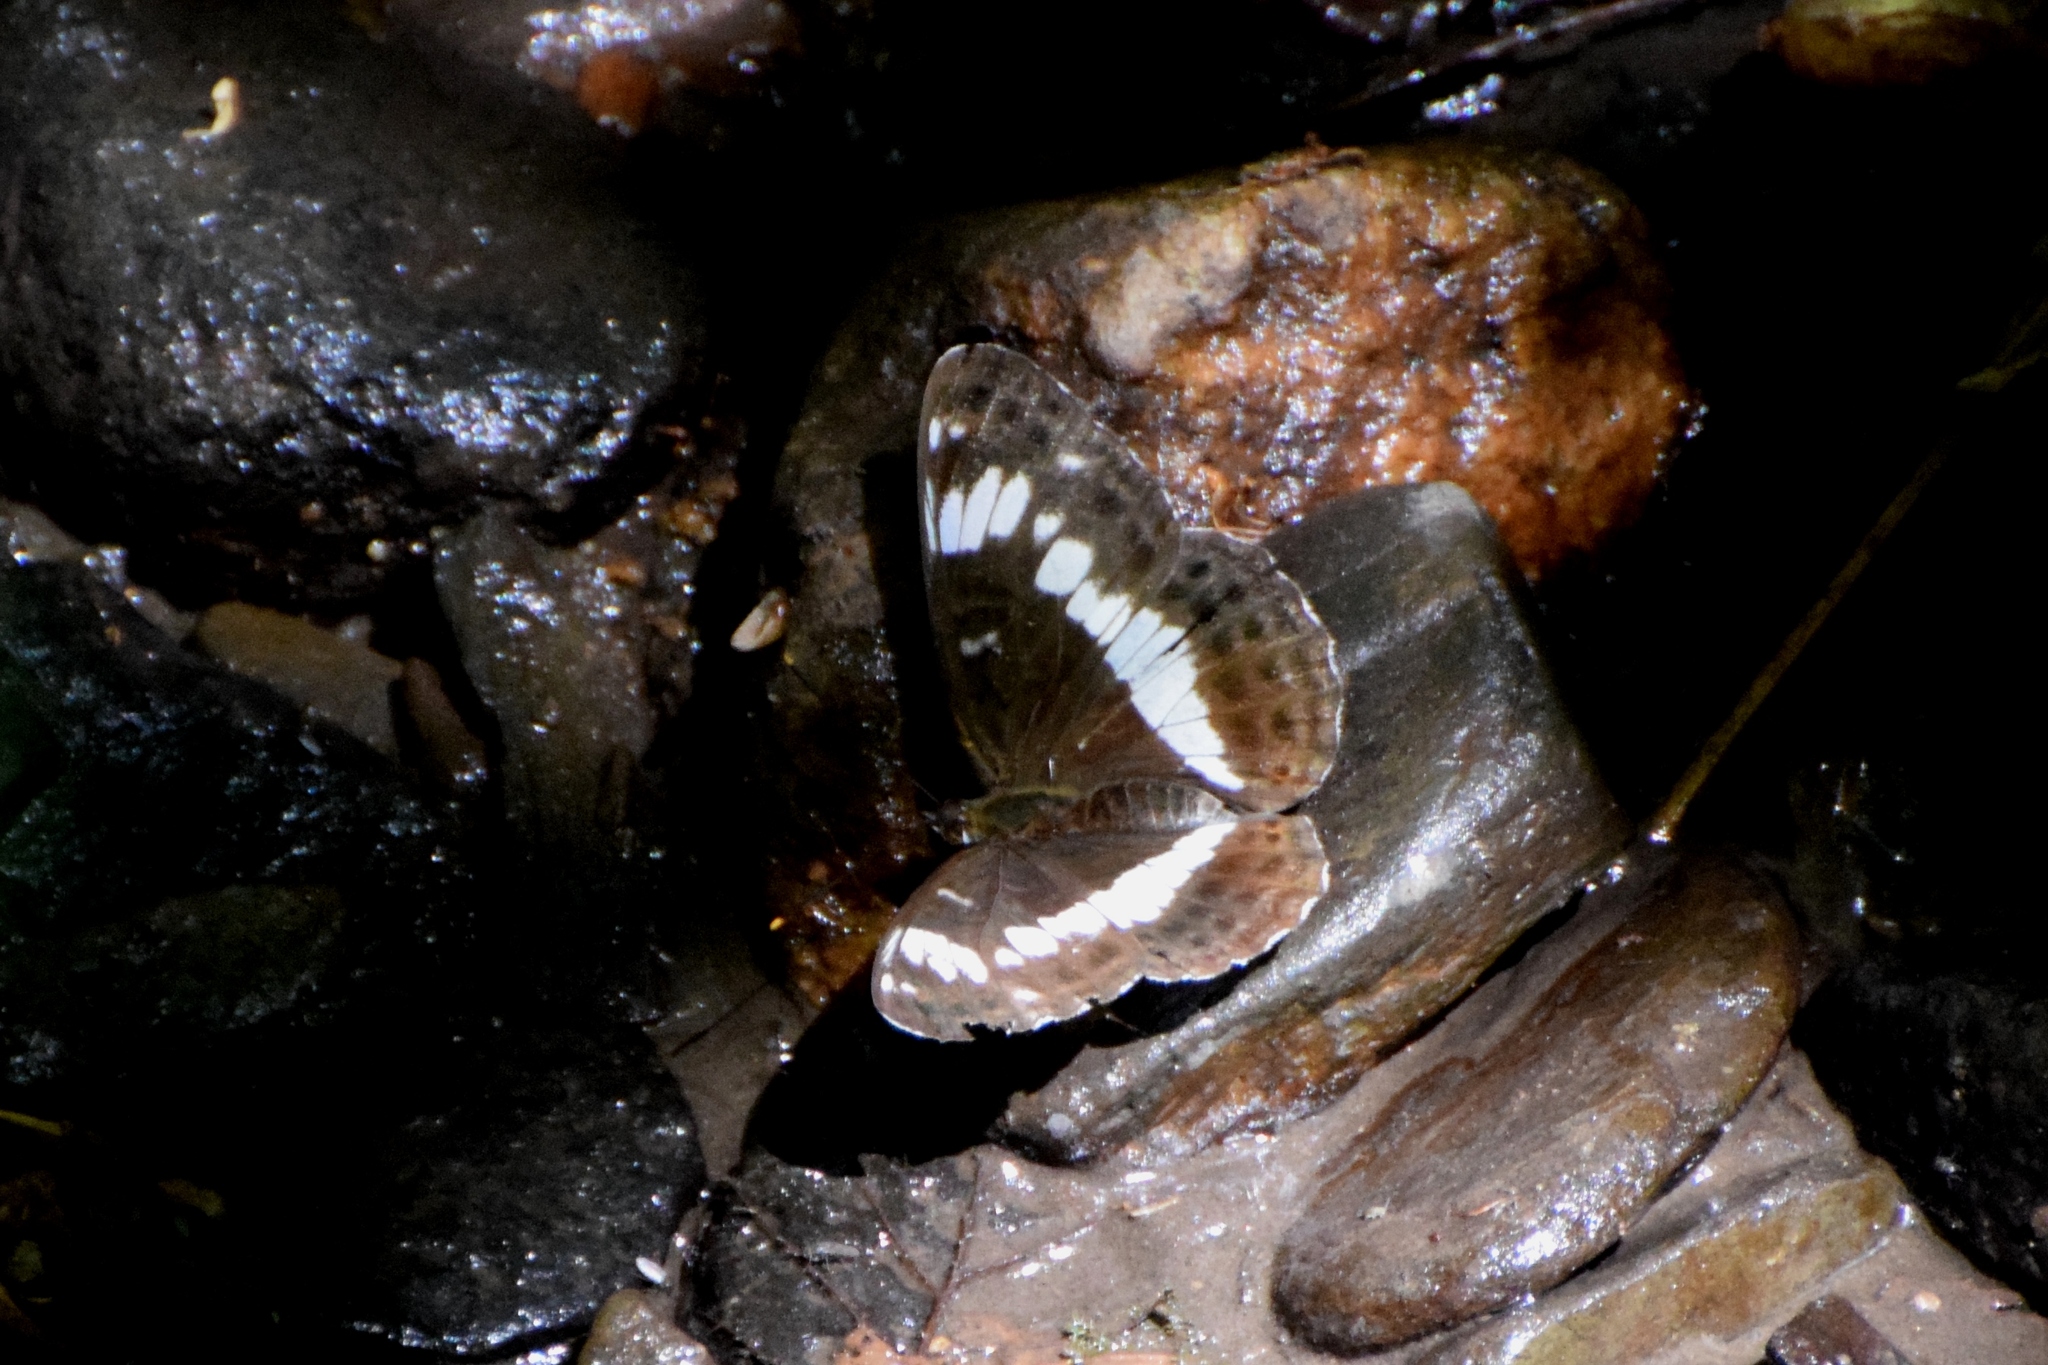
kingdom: Animalia
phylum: Arthropoda
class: Insecta
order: Lepidoptera
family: Nymphalidae
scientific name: Nymphalidae
